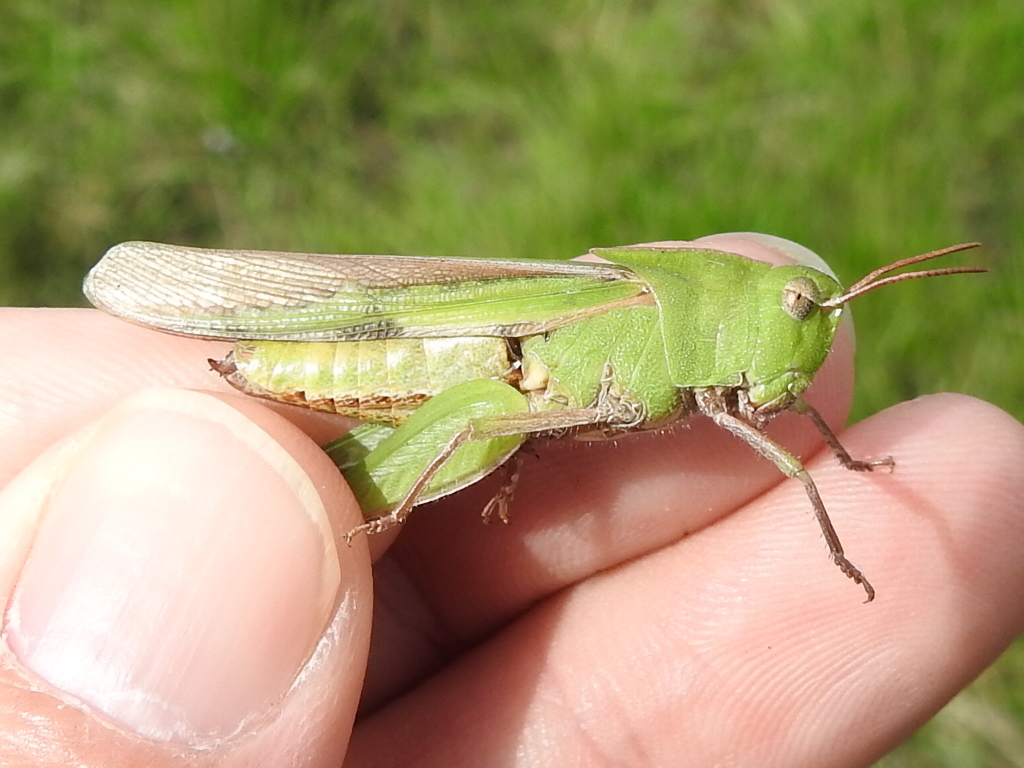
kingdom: Animalia
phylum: Arthropoda
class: Insecta
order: Orthoptera
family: Acrididae
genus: Chortophaga
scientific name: Chortophaga viridifasciata
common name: Green-striped grasshopper
